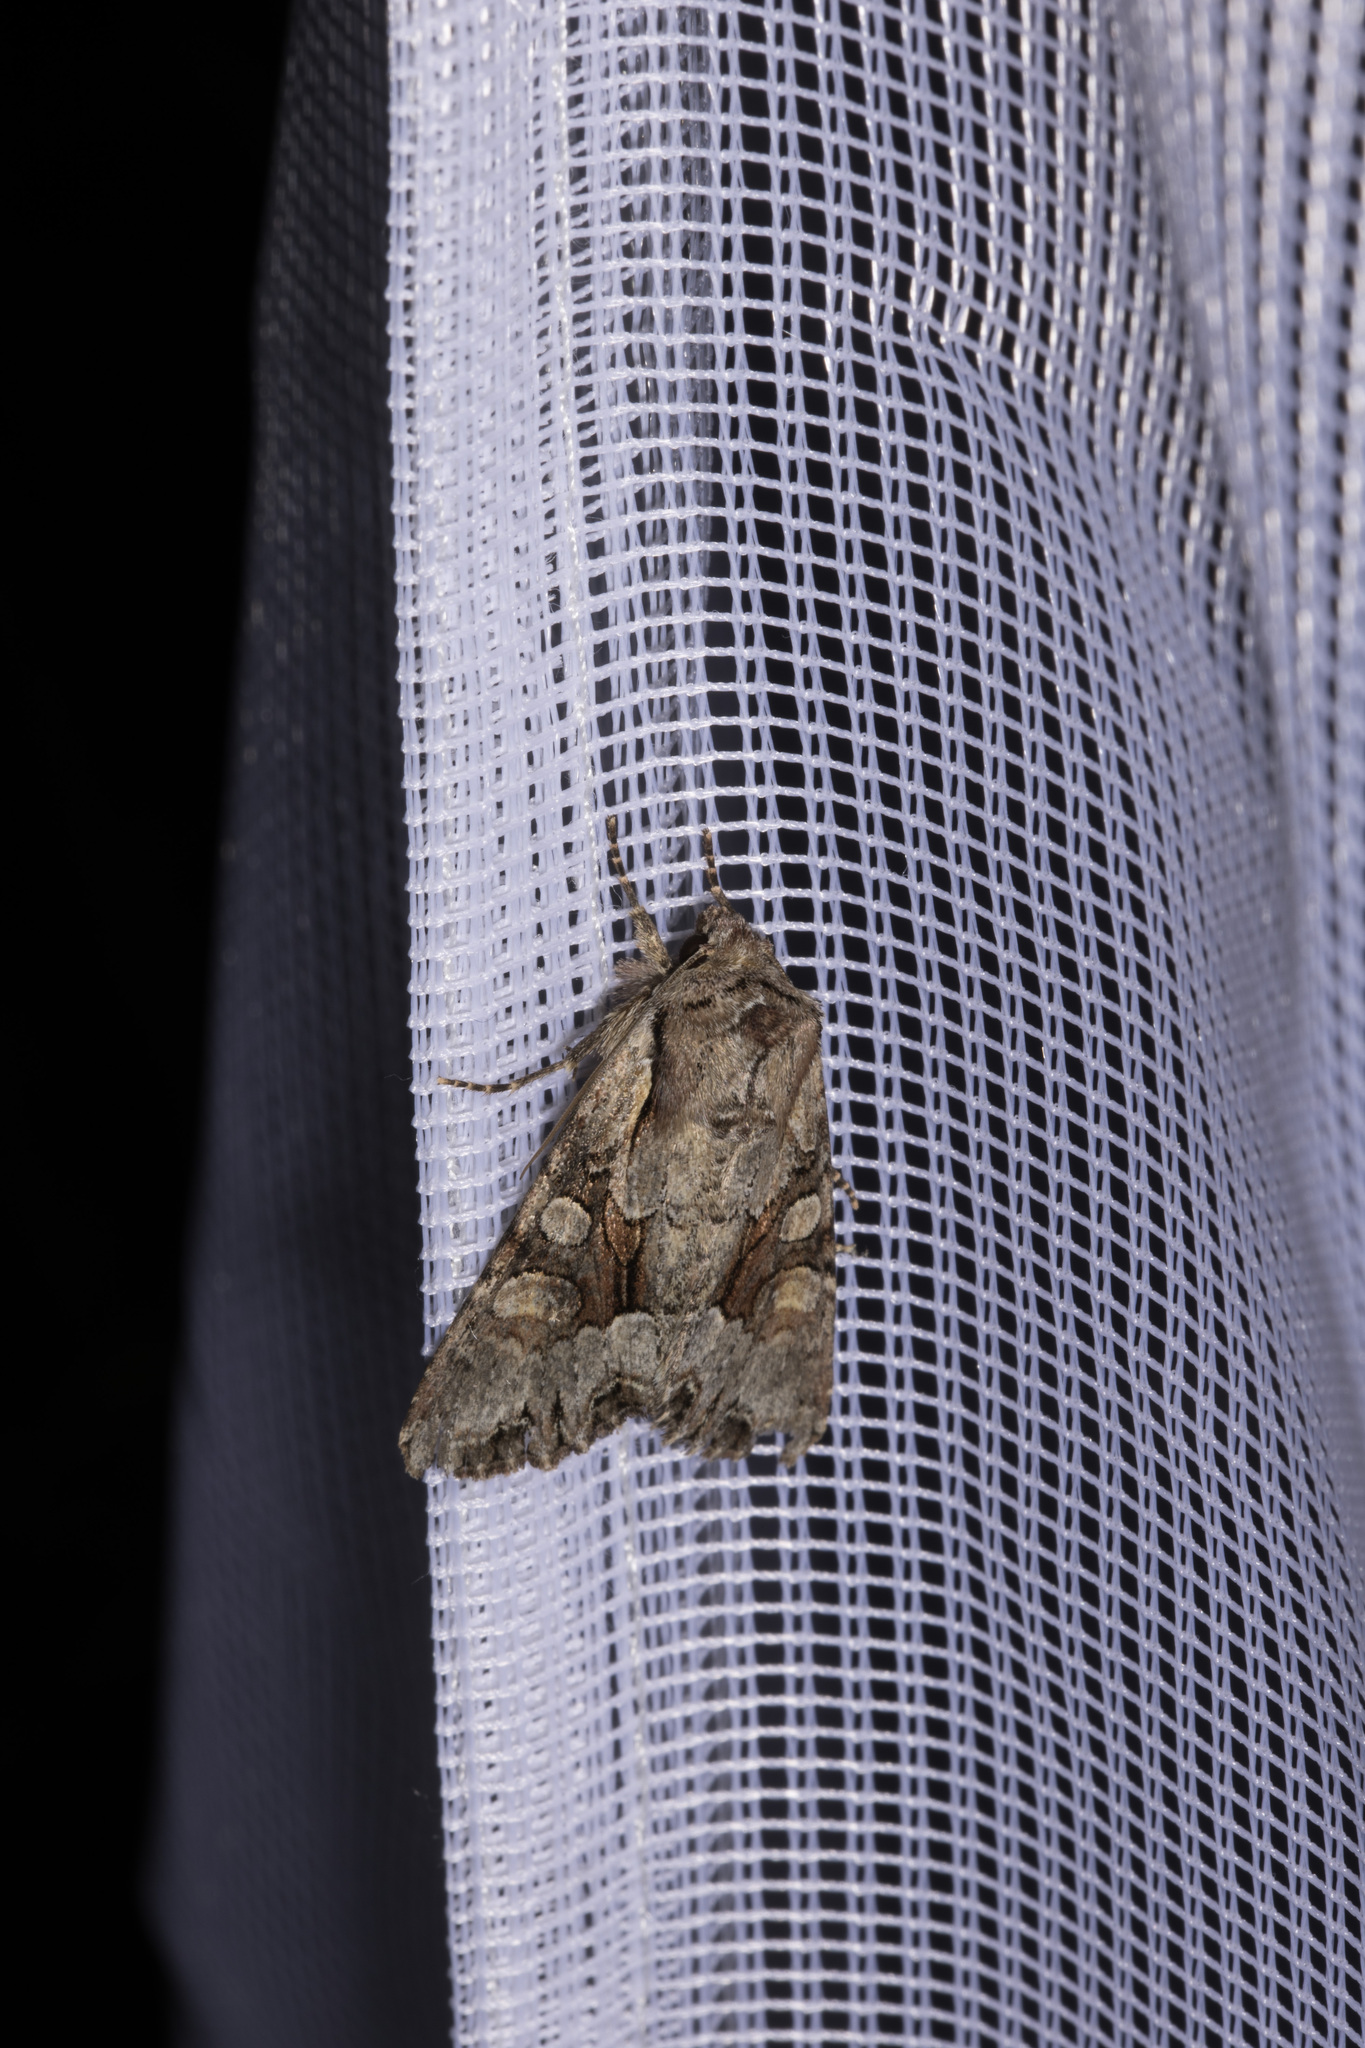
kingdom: Animalia
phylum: Arthropoda
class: Insecta
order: Lepidoptera
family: Noctuidae
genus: Lacanobia
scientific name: Lacanobia w-latinum
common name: Light brocade
